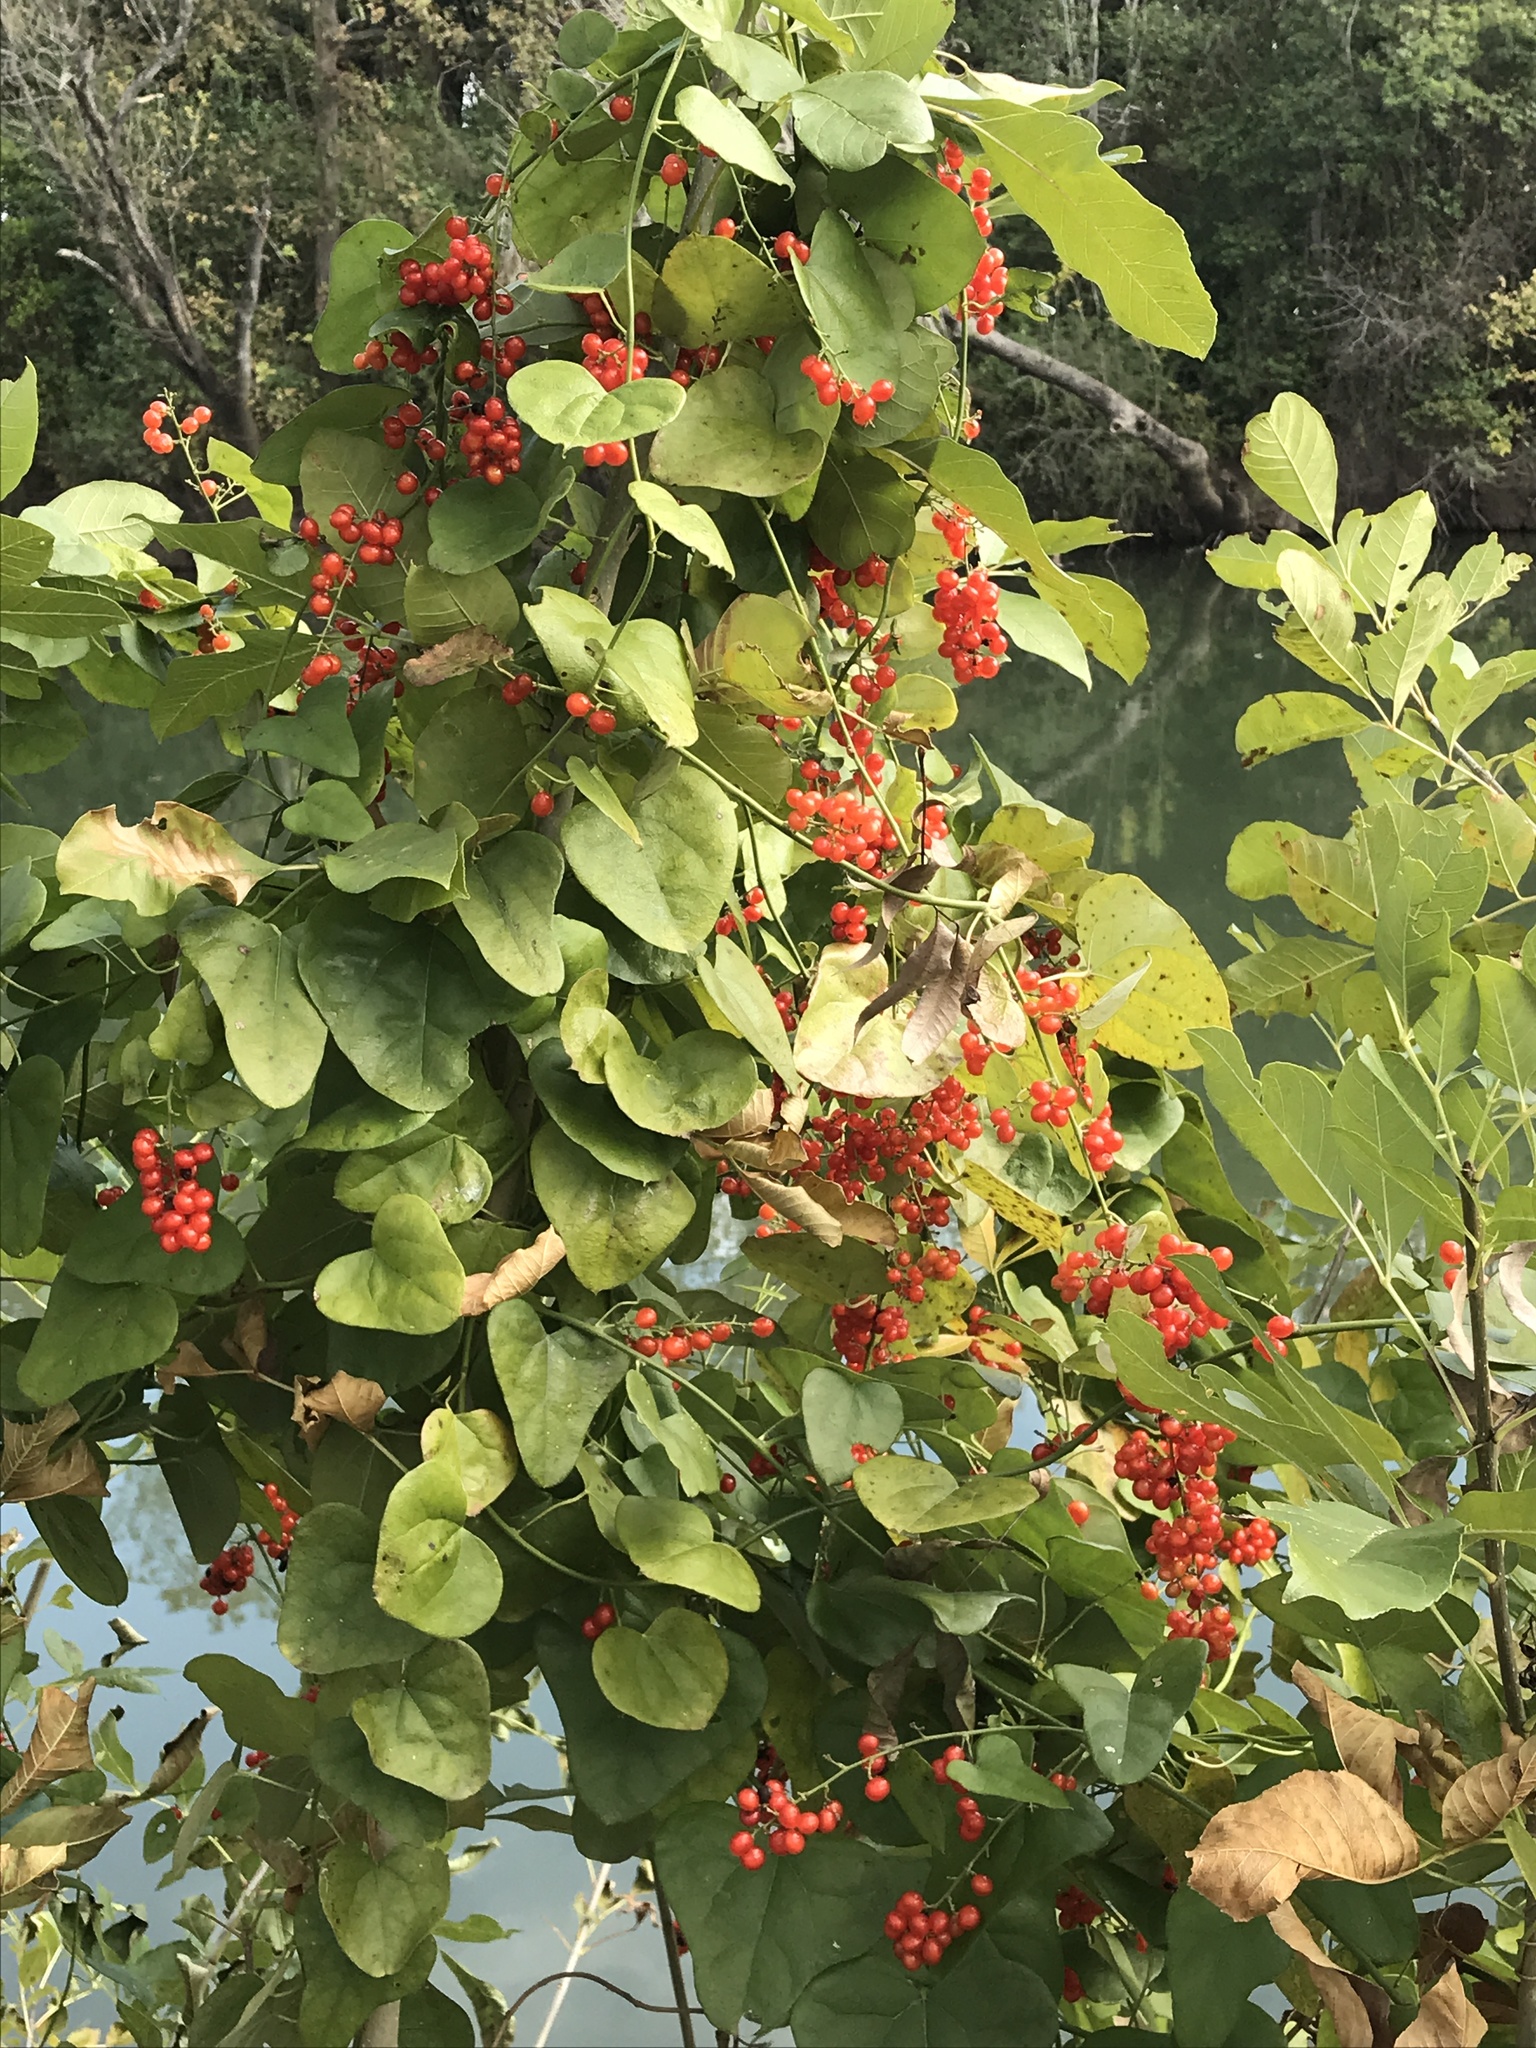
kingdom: Plantae
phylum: Tracheophyta
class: Magnoliopsida
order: Ranunculales
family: Menispermaceae
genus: Cocculus
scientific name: Cocculus carolinus
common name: Carolina moonseed
